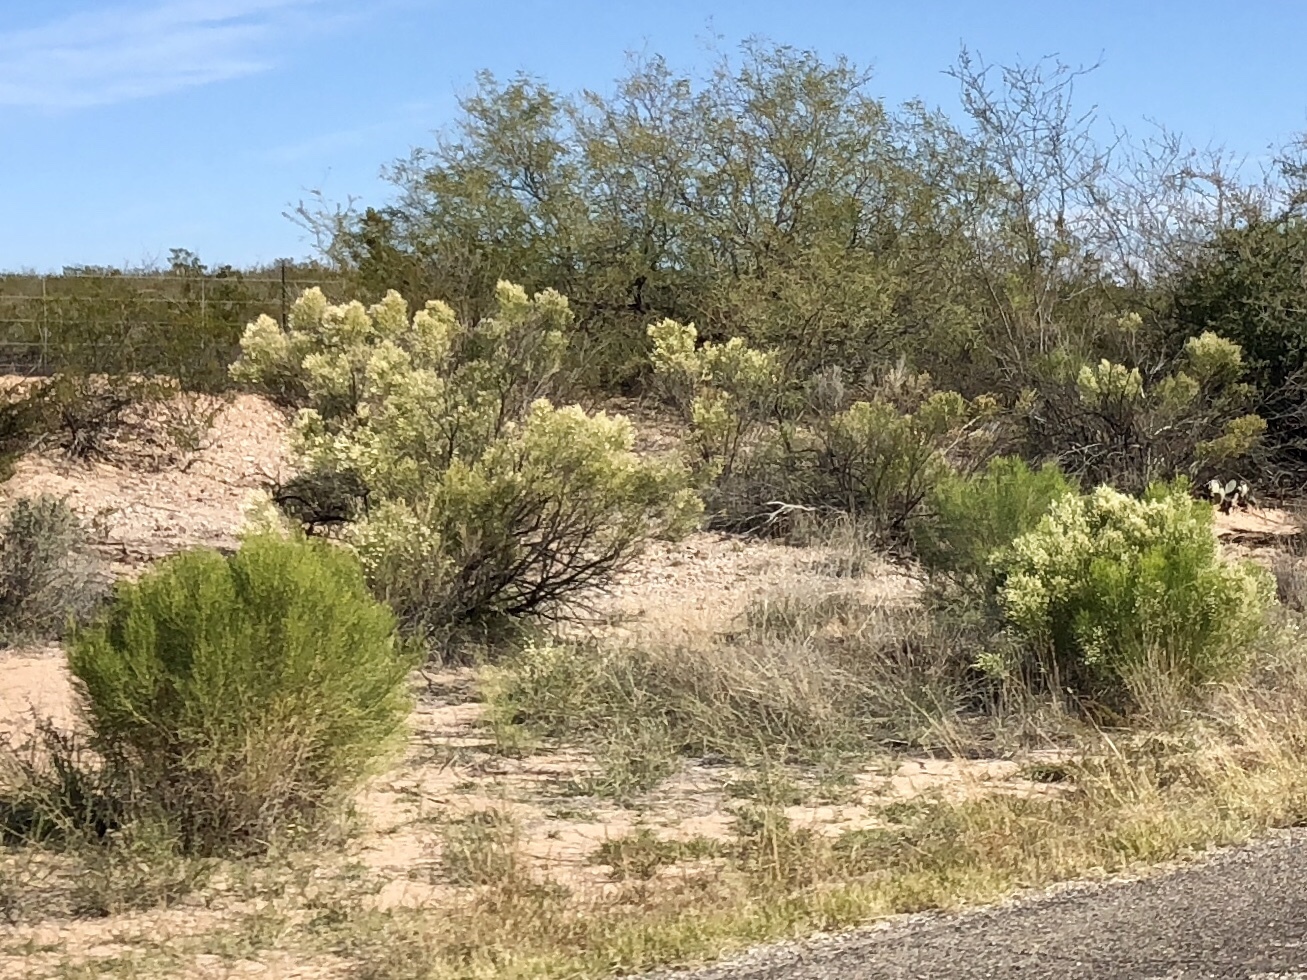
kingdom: Plantae
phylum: Tracheophyta
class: Magnoliopsida
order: Asterales
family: Asteraceae
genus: Baccharis
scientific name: Baccharis sarothroides
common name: Desert-broom
